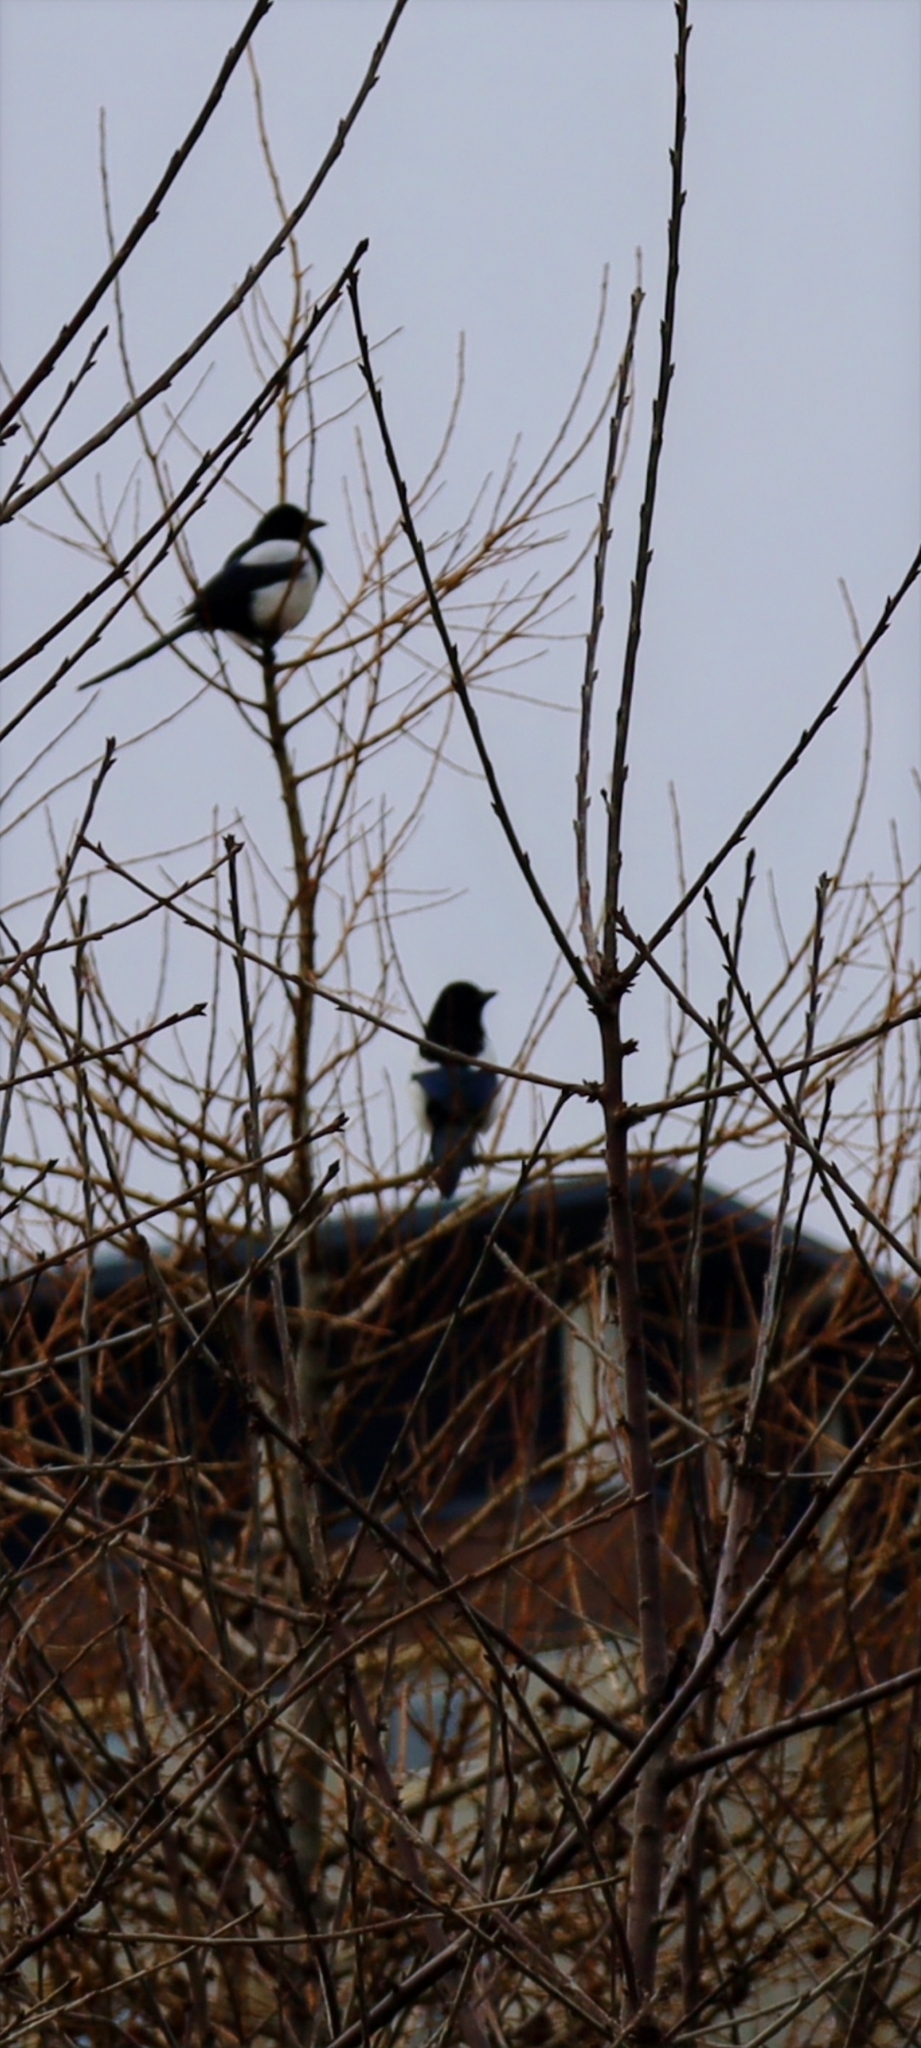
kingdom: Animalia
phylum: Chordata
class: Aves
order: Passeriformes
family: Corvidae
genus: Pica
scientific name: Pica pica
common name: Eurasian magpie
